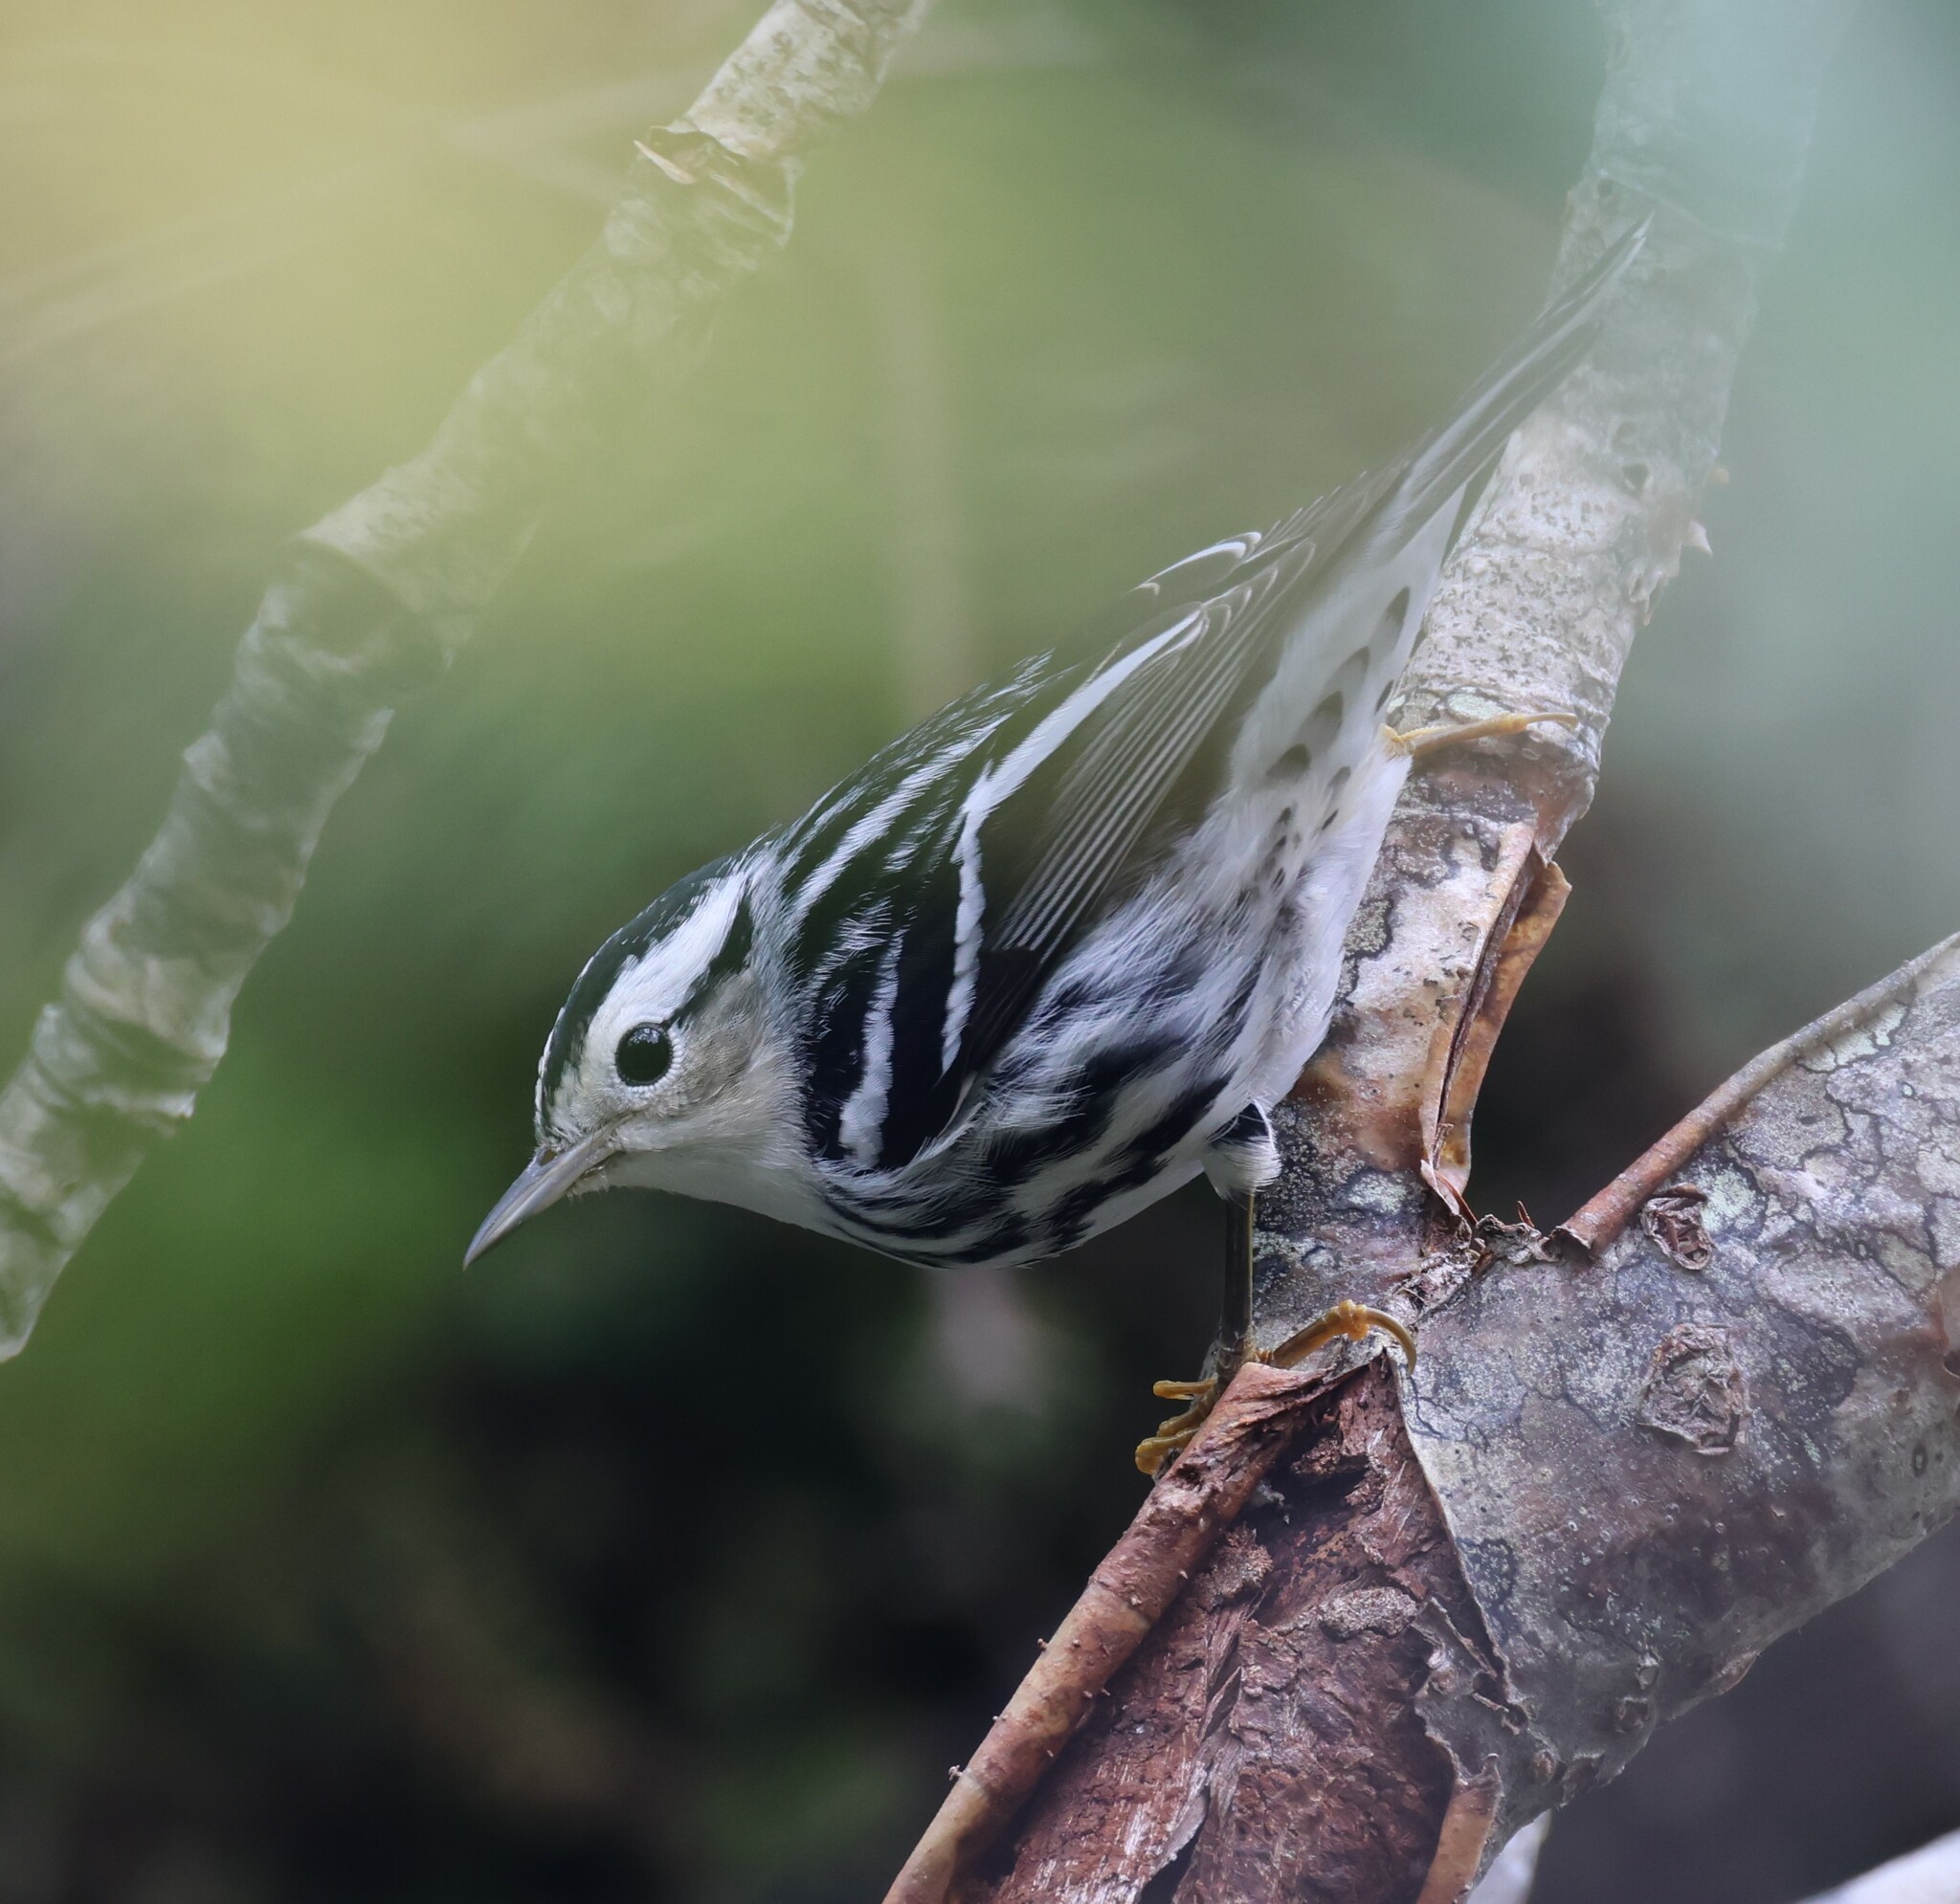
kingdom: Animalia
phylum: Chordata
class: Aves
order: Passeriformes
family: Parulidae
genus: Mniotilta
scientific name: Mniotilta varia
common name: Black-and-white warbler
